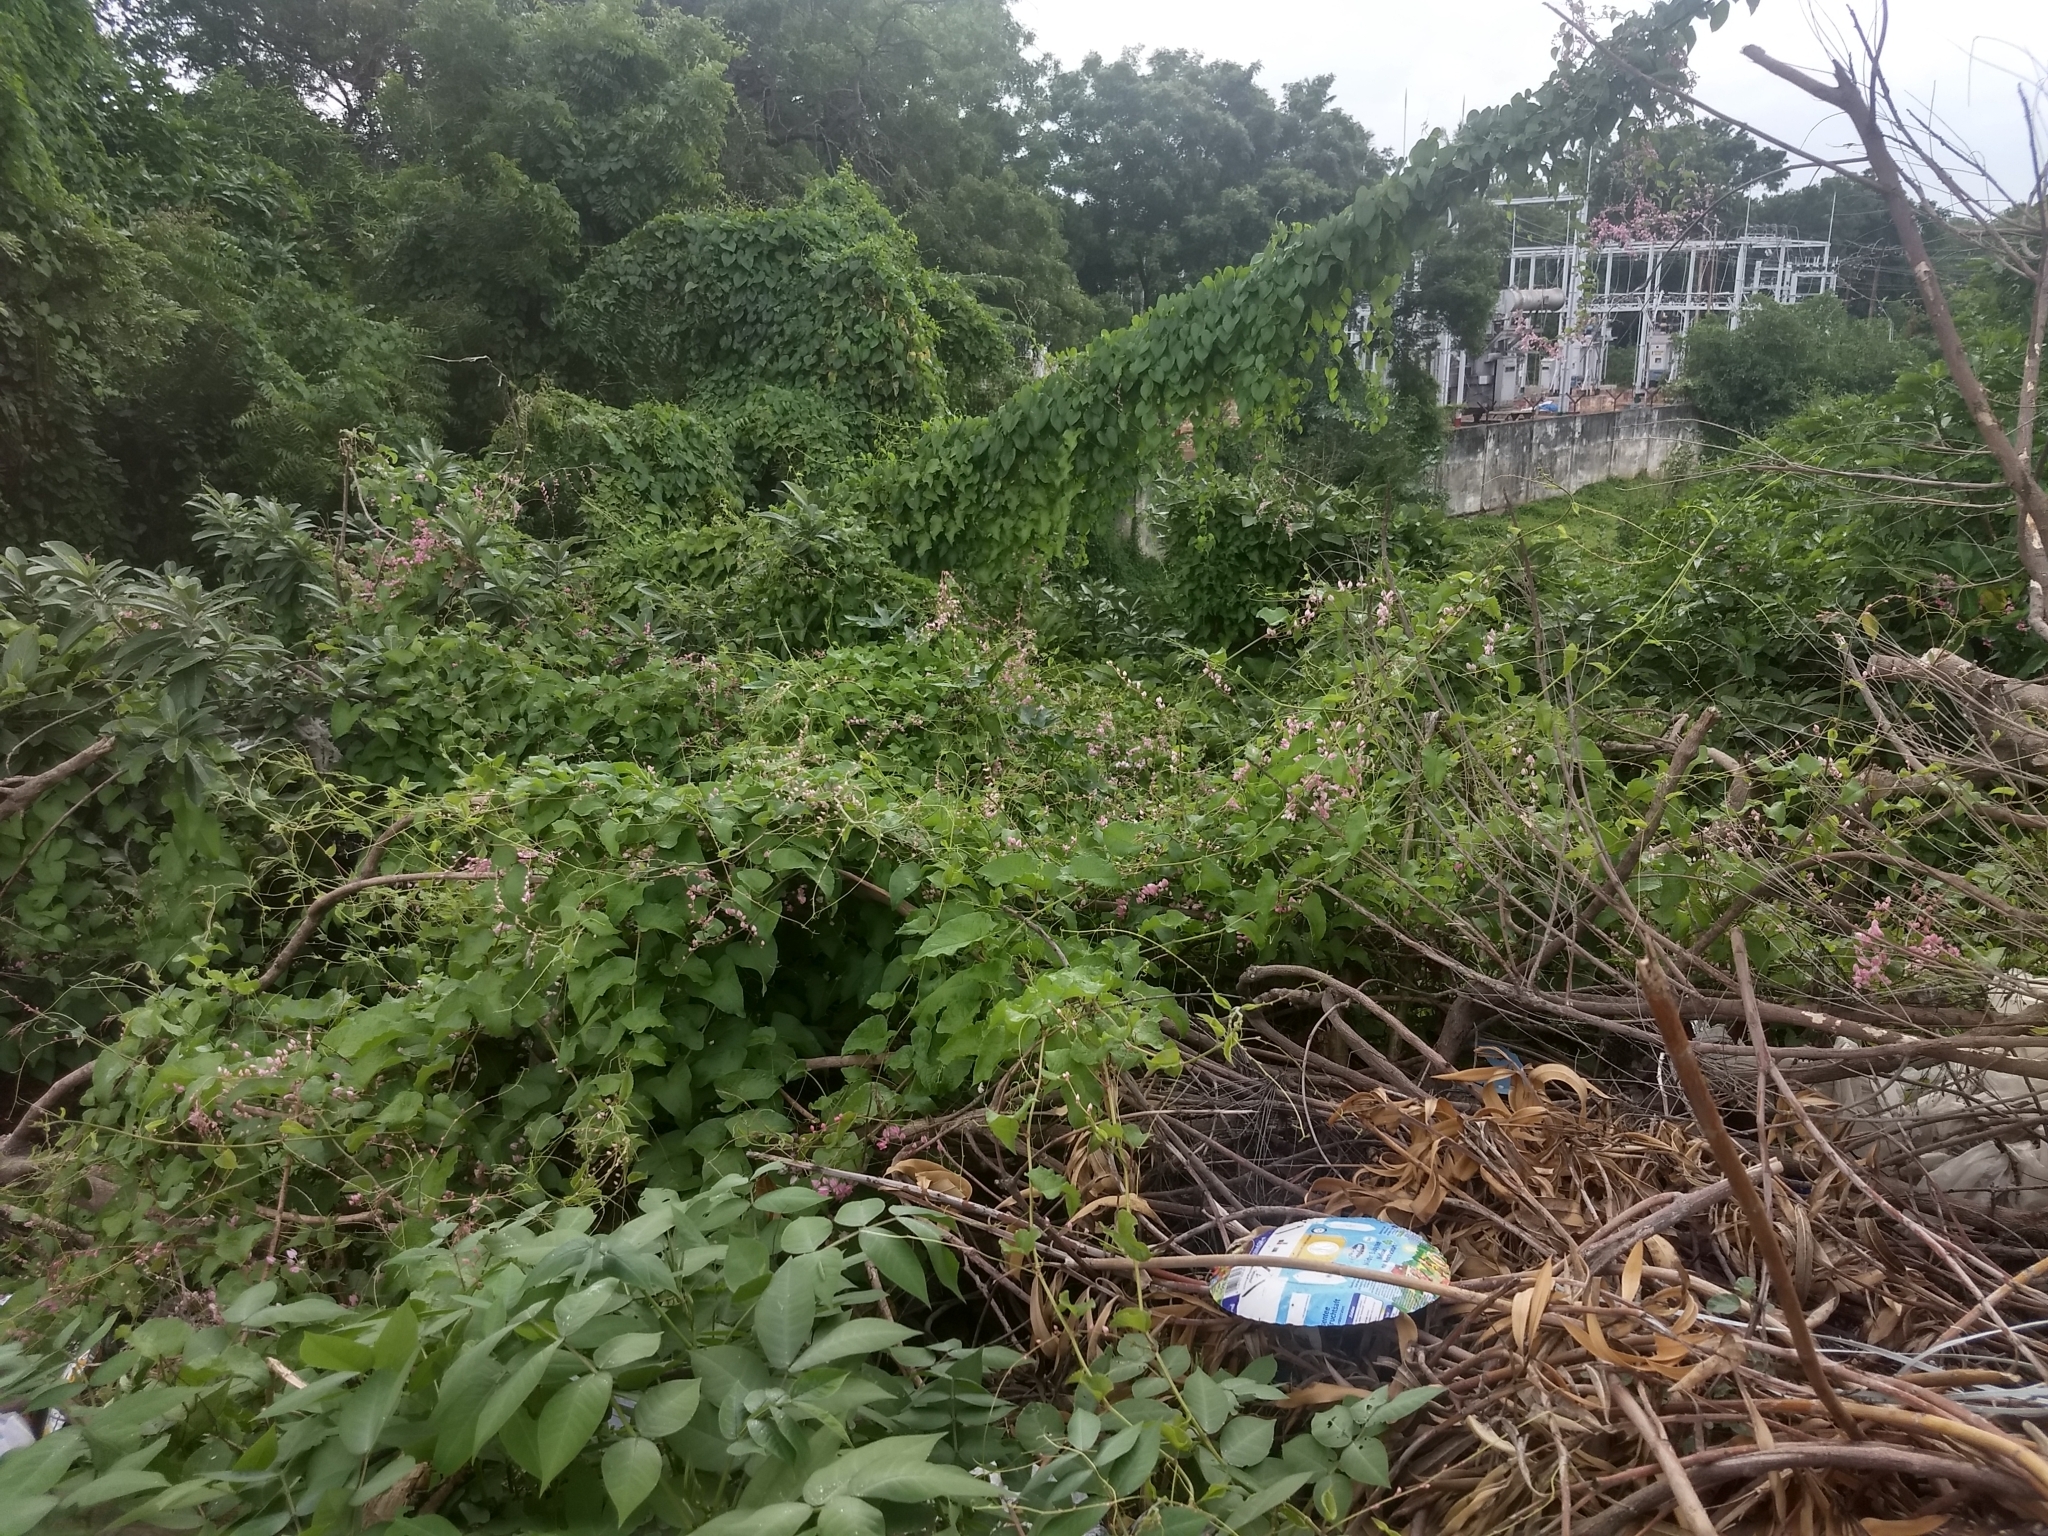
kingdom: Plantae
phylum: Tracheophyta
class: Magnoliopsida
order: Caryophyllales
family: Polygonaceae
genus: Antigonon
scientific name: Antigonon leptopus
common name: Coral vine
